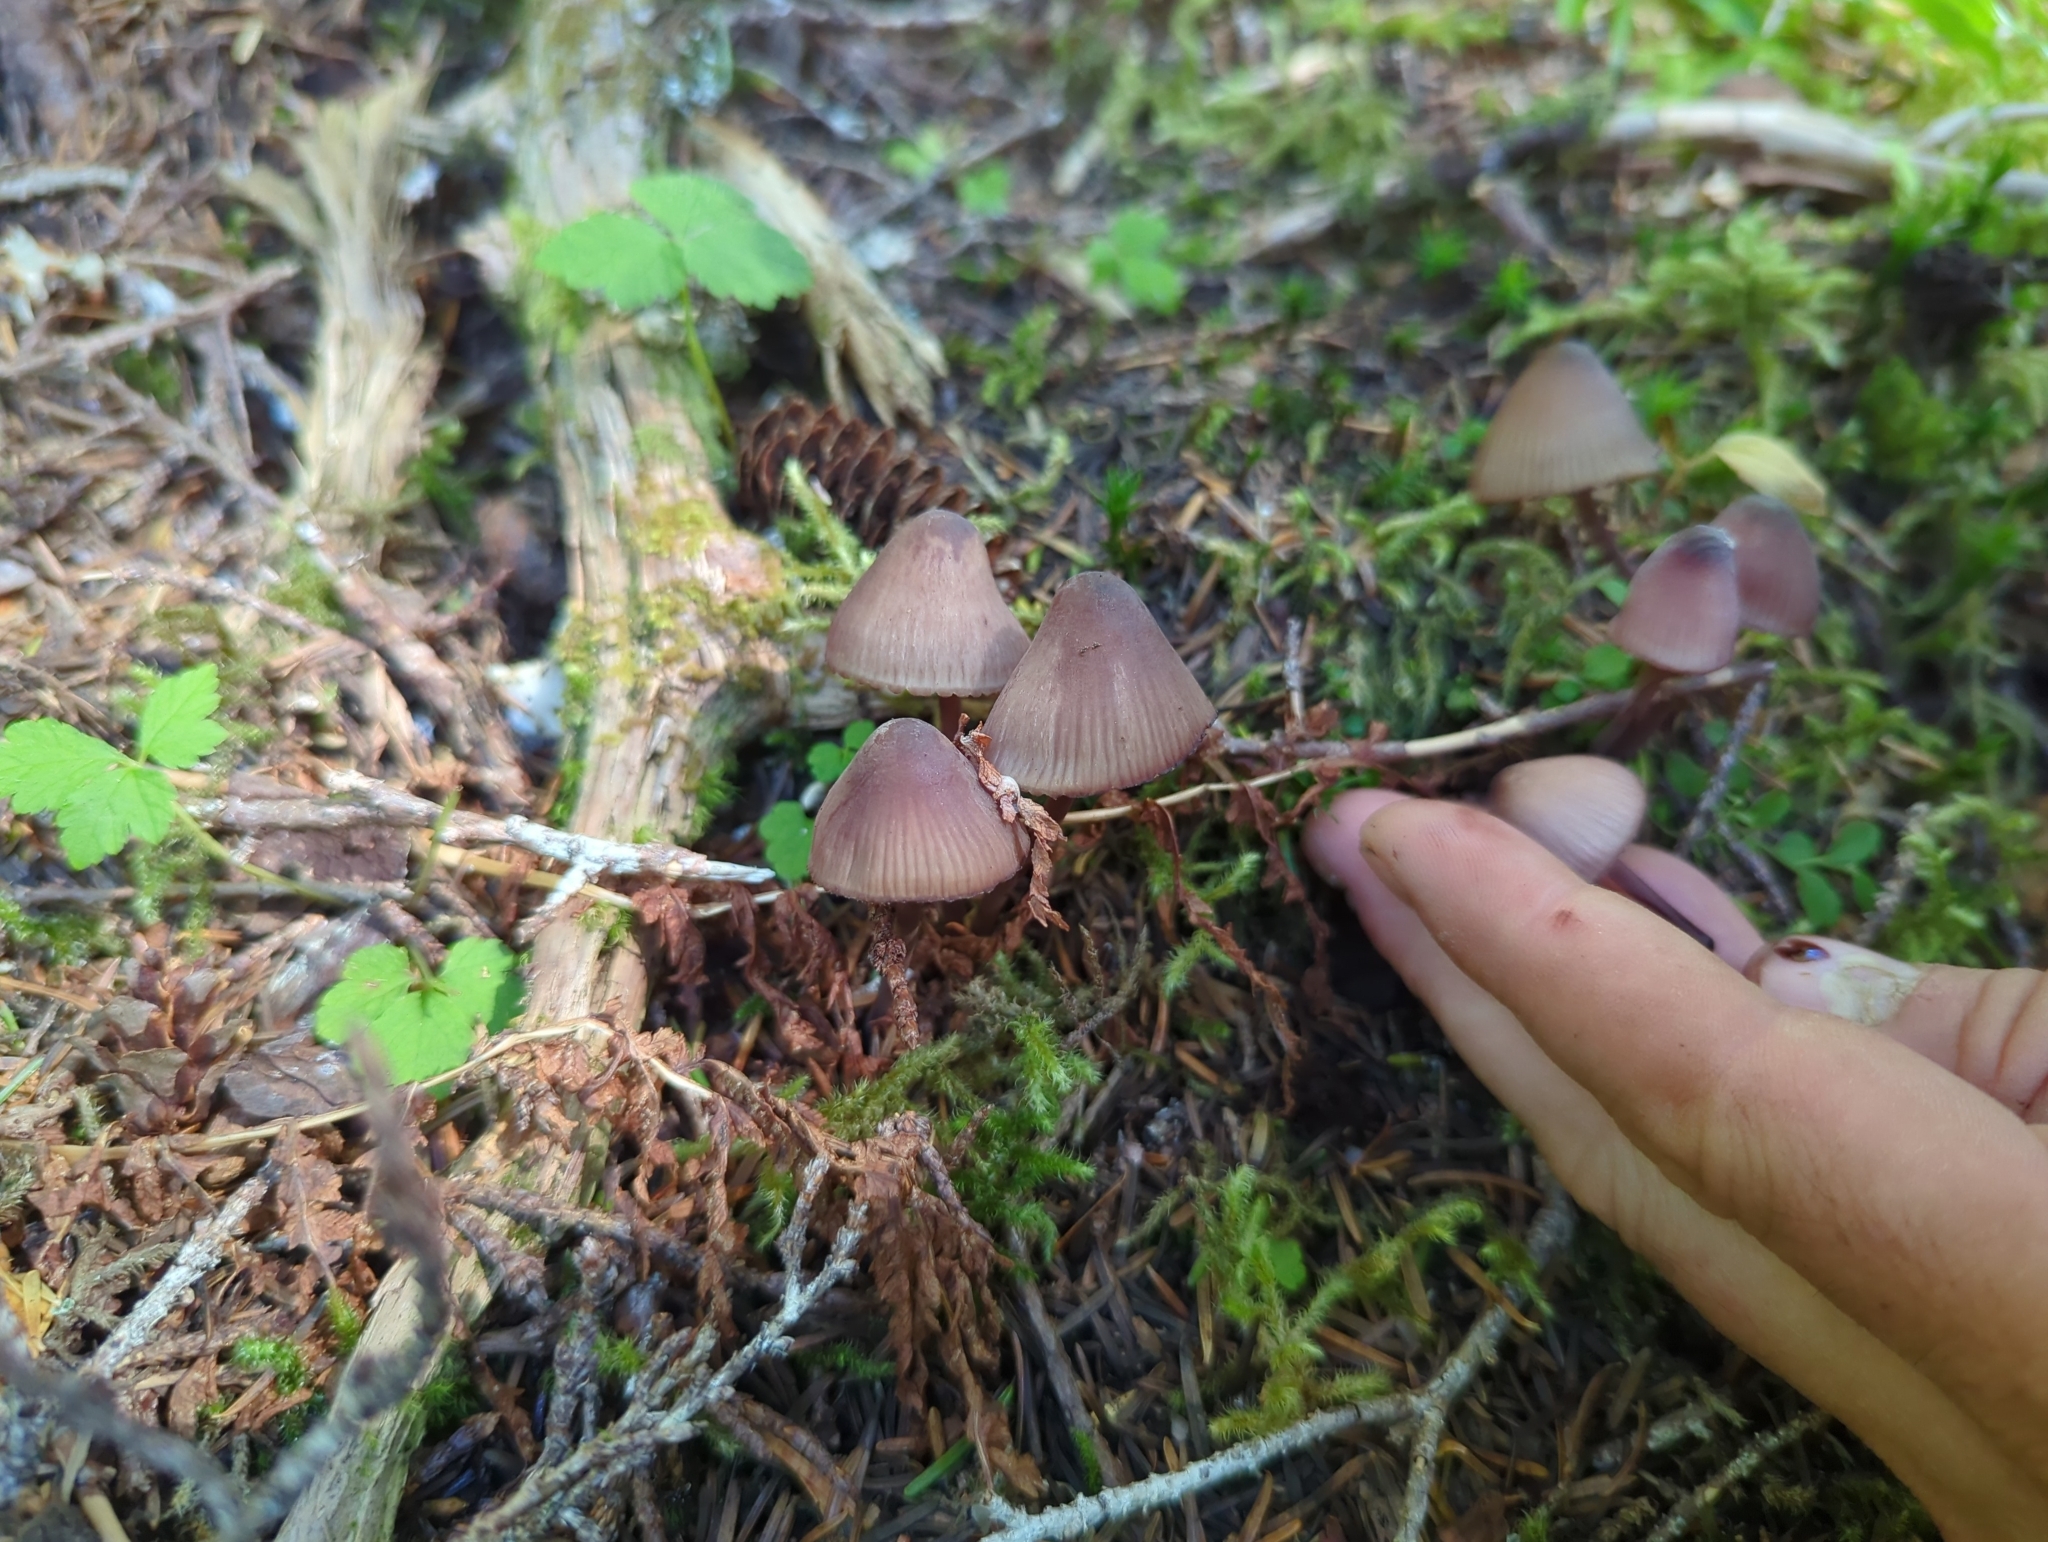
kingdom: Fungi
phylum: Basidiomycota
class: Agaricomycetes
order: Agaricales
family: Mycenaceae
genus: Mycena
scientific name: Mycena haematopus
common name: Burgundydrop bonnet
